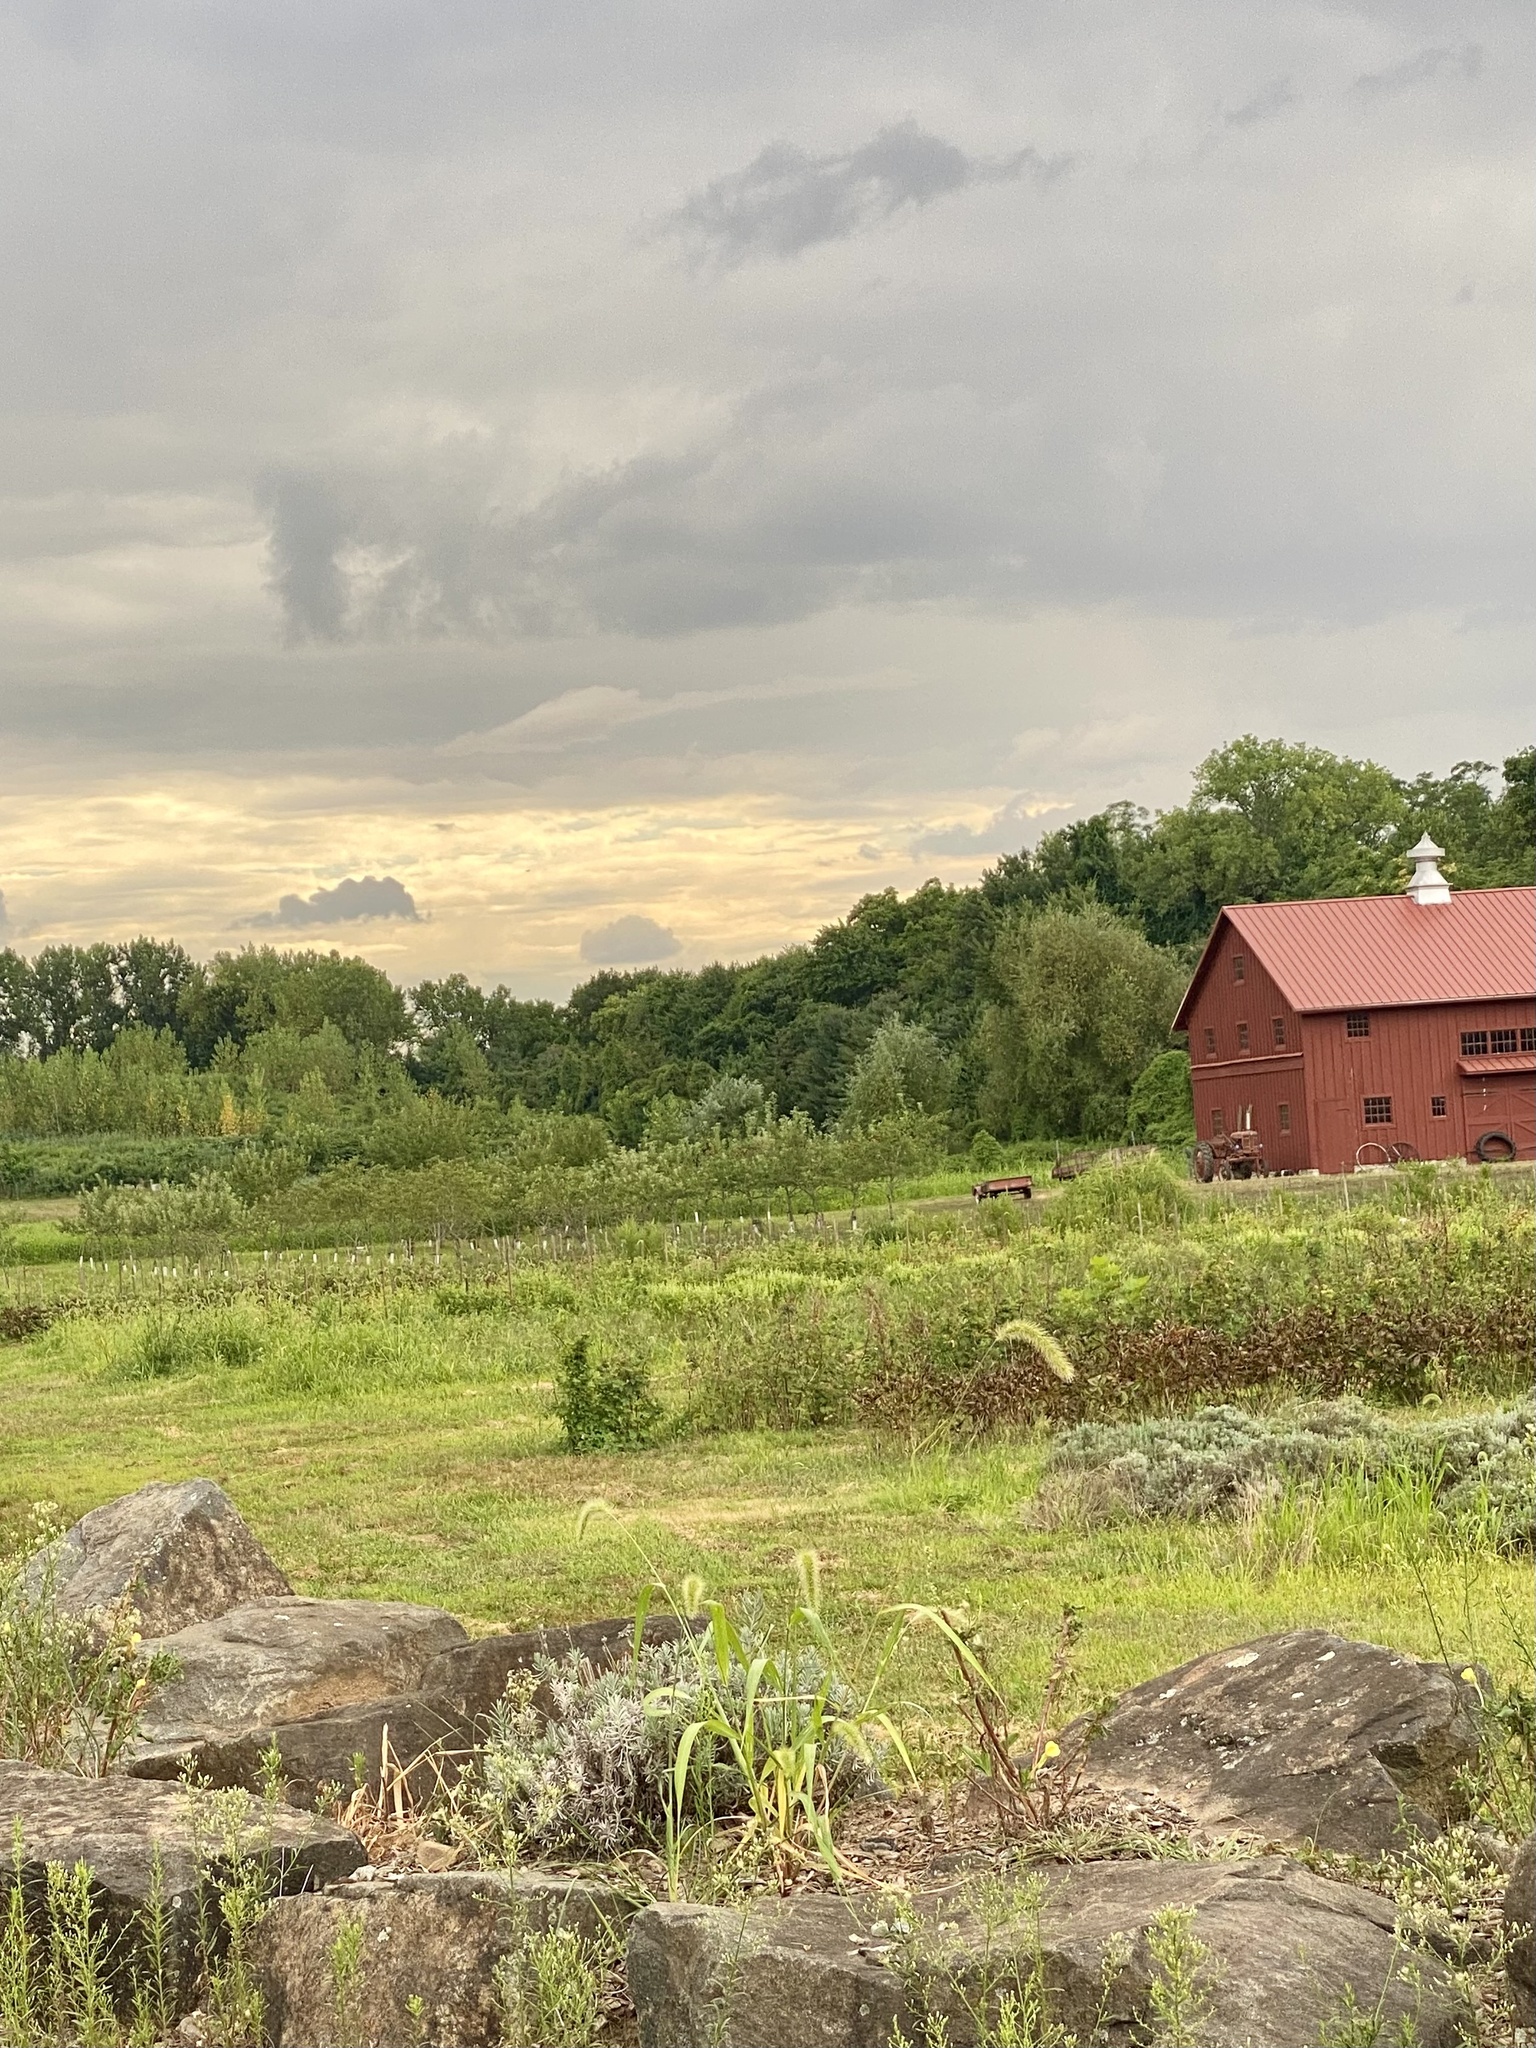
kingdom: Animalia
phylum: Chordata
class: Mammalia
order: Rodentia
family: Sciuridae
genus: Marmota
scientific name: Marmota monax
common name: Groundhog
